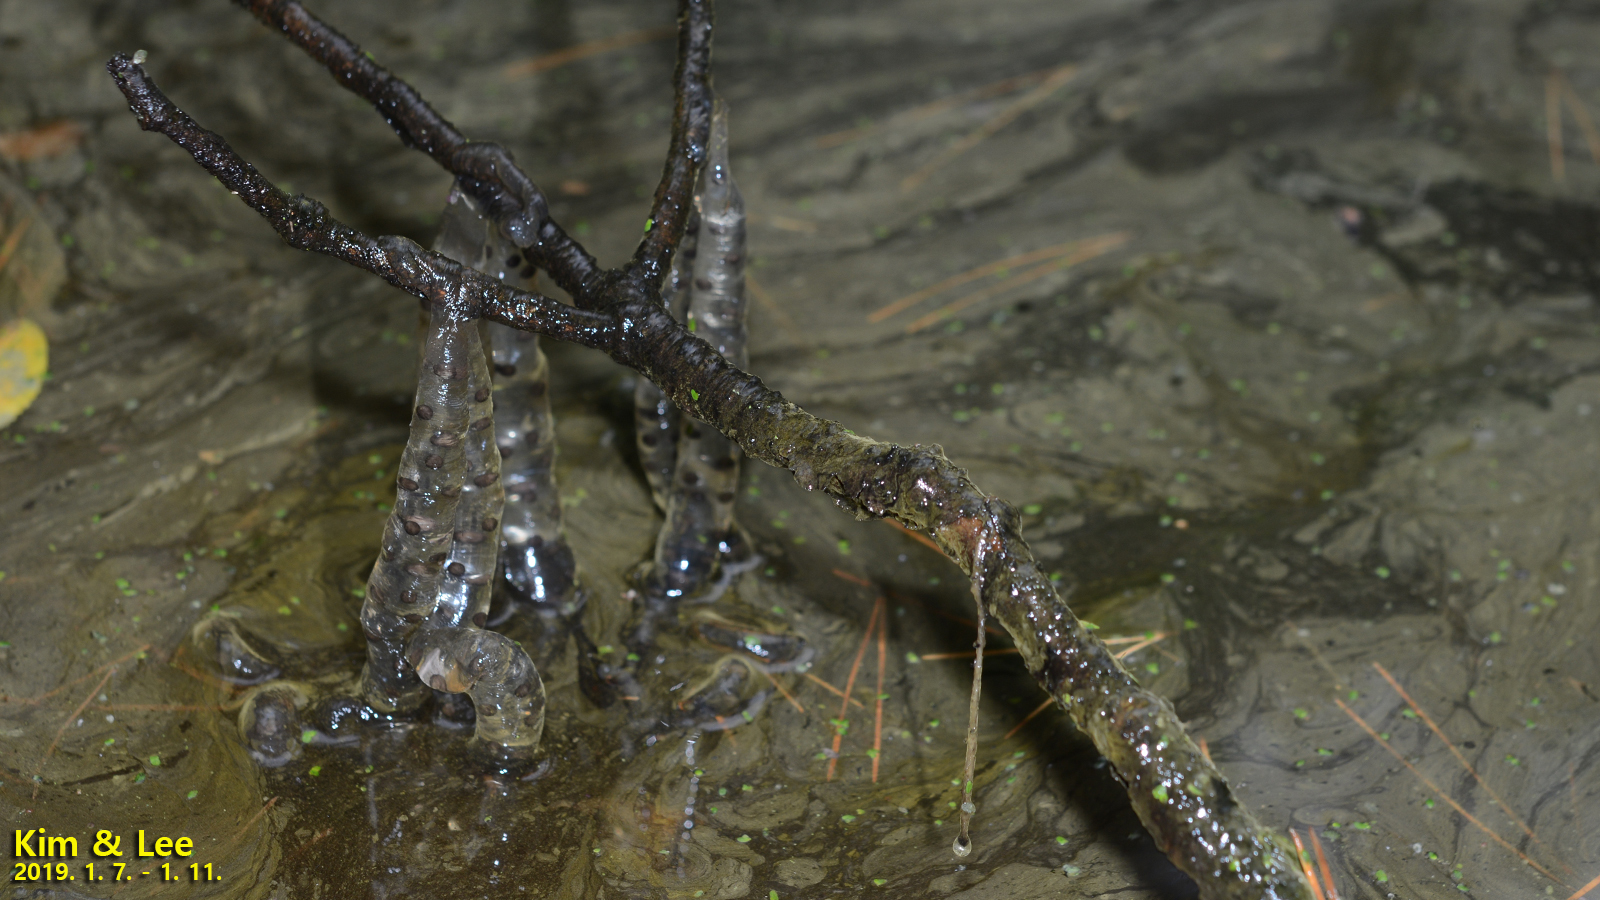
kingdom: Animalia
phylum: Chordata
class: Amphibia
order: Caudata
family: Hynobiidae
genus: Hynobius
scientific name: Hynobius quelpaertensis
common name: Cheju salamander
